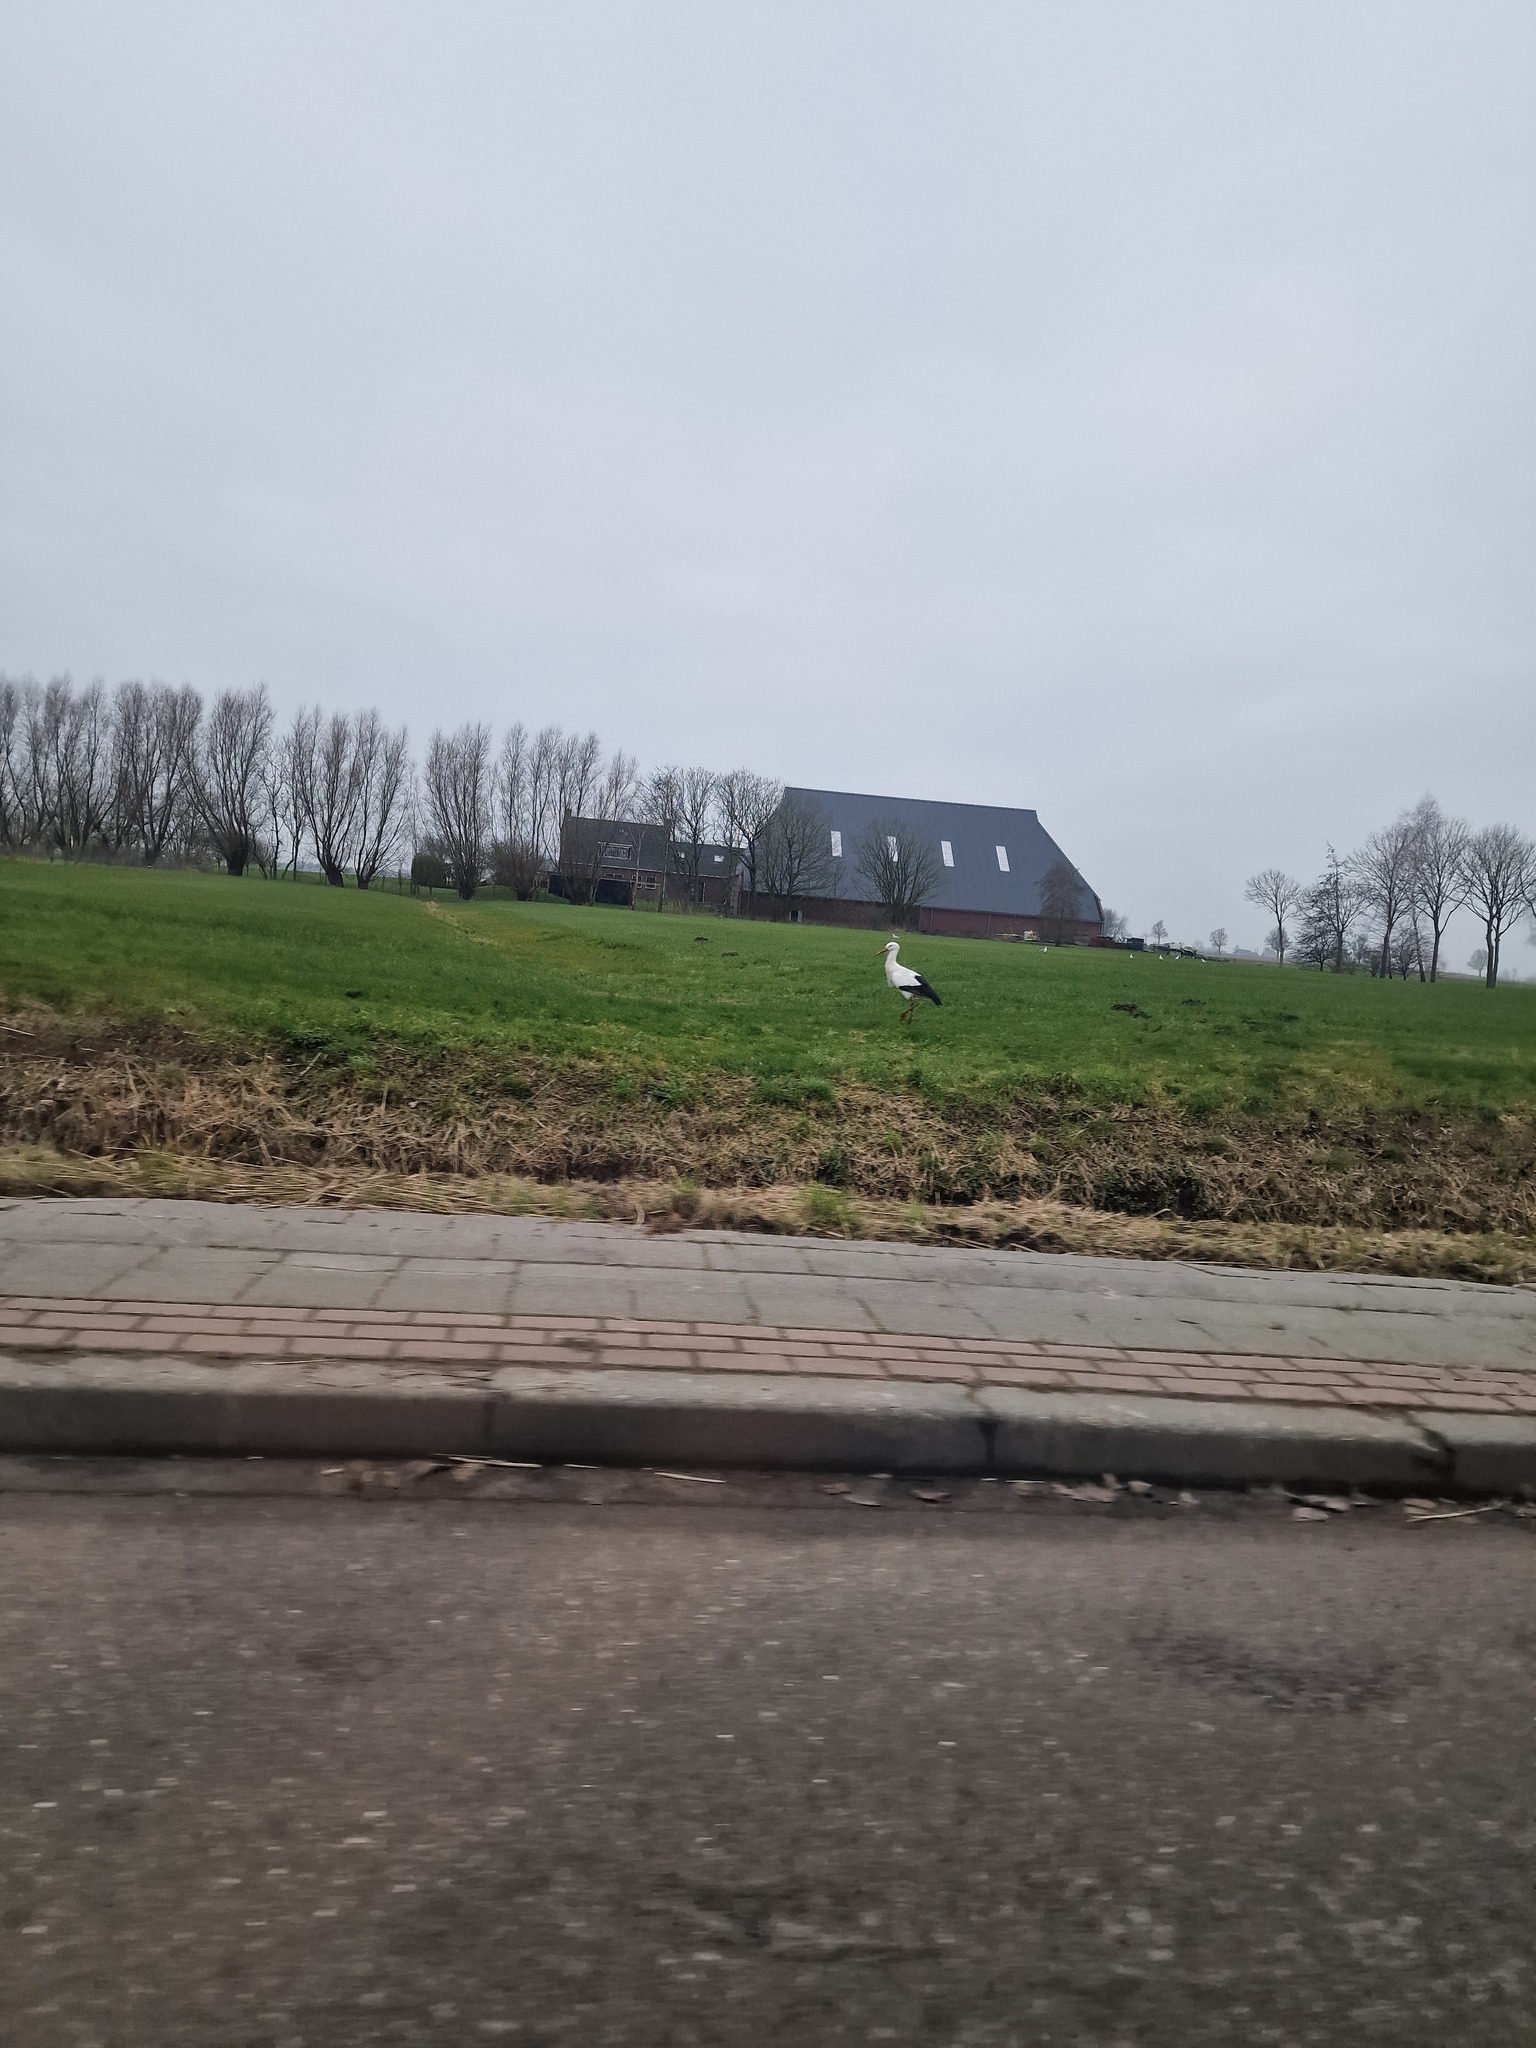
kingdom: Animalia
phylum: Chordata
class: Aves
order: Ciconiiformes
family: Ciconiidae
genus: Ciconia
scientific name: Ciconia ciconia
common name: White stork
